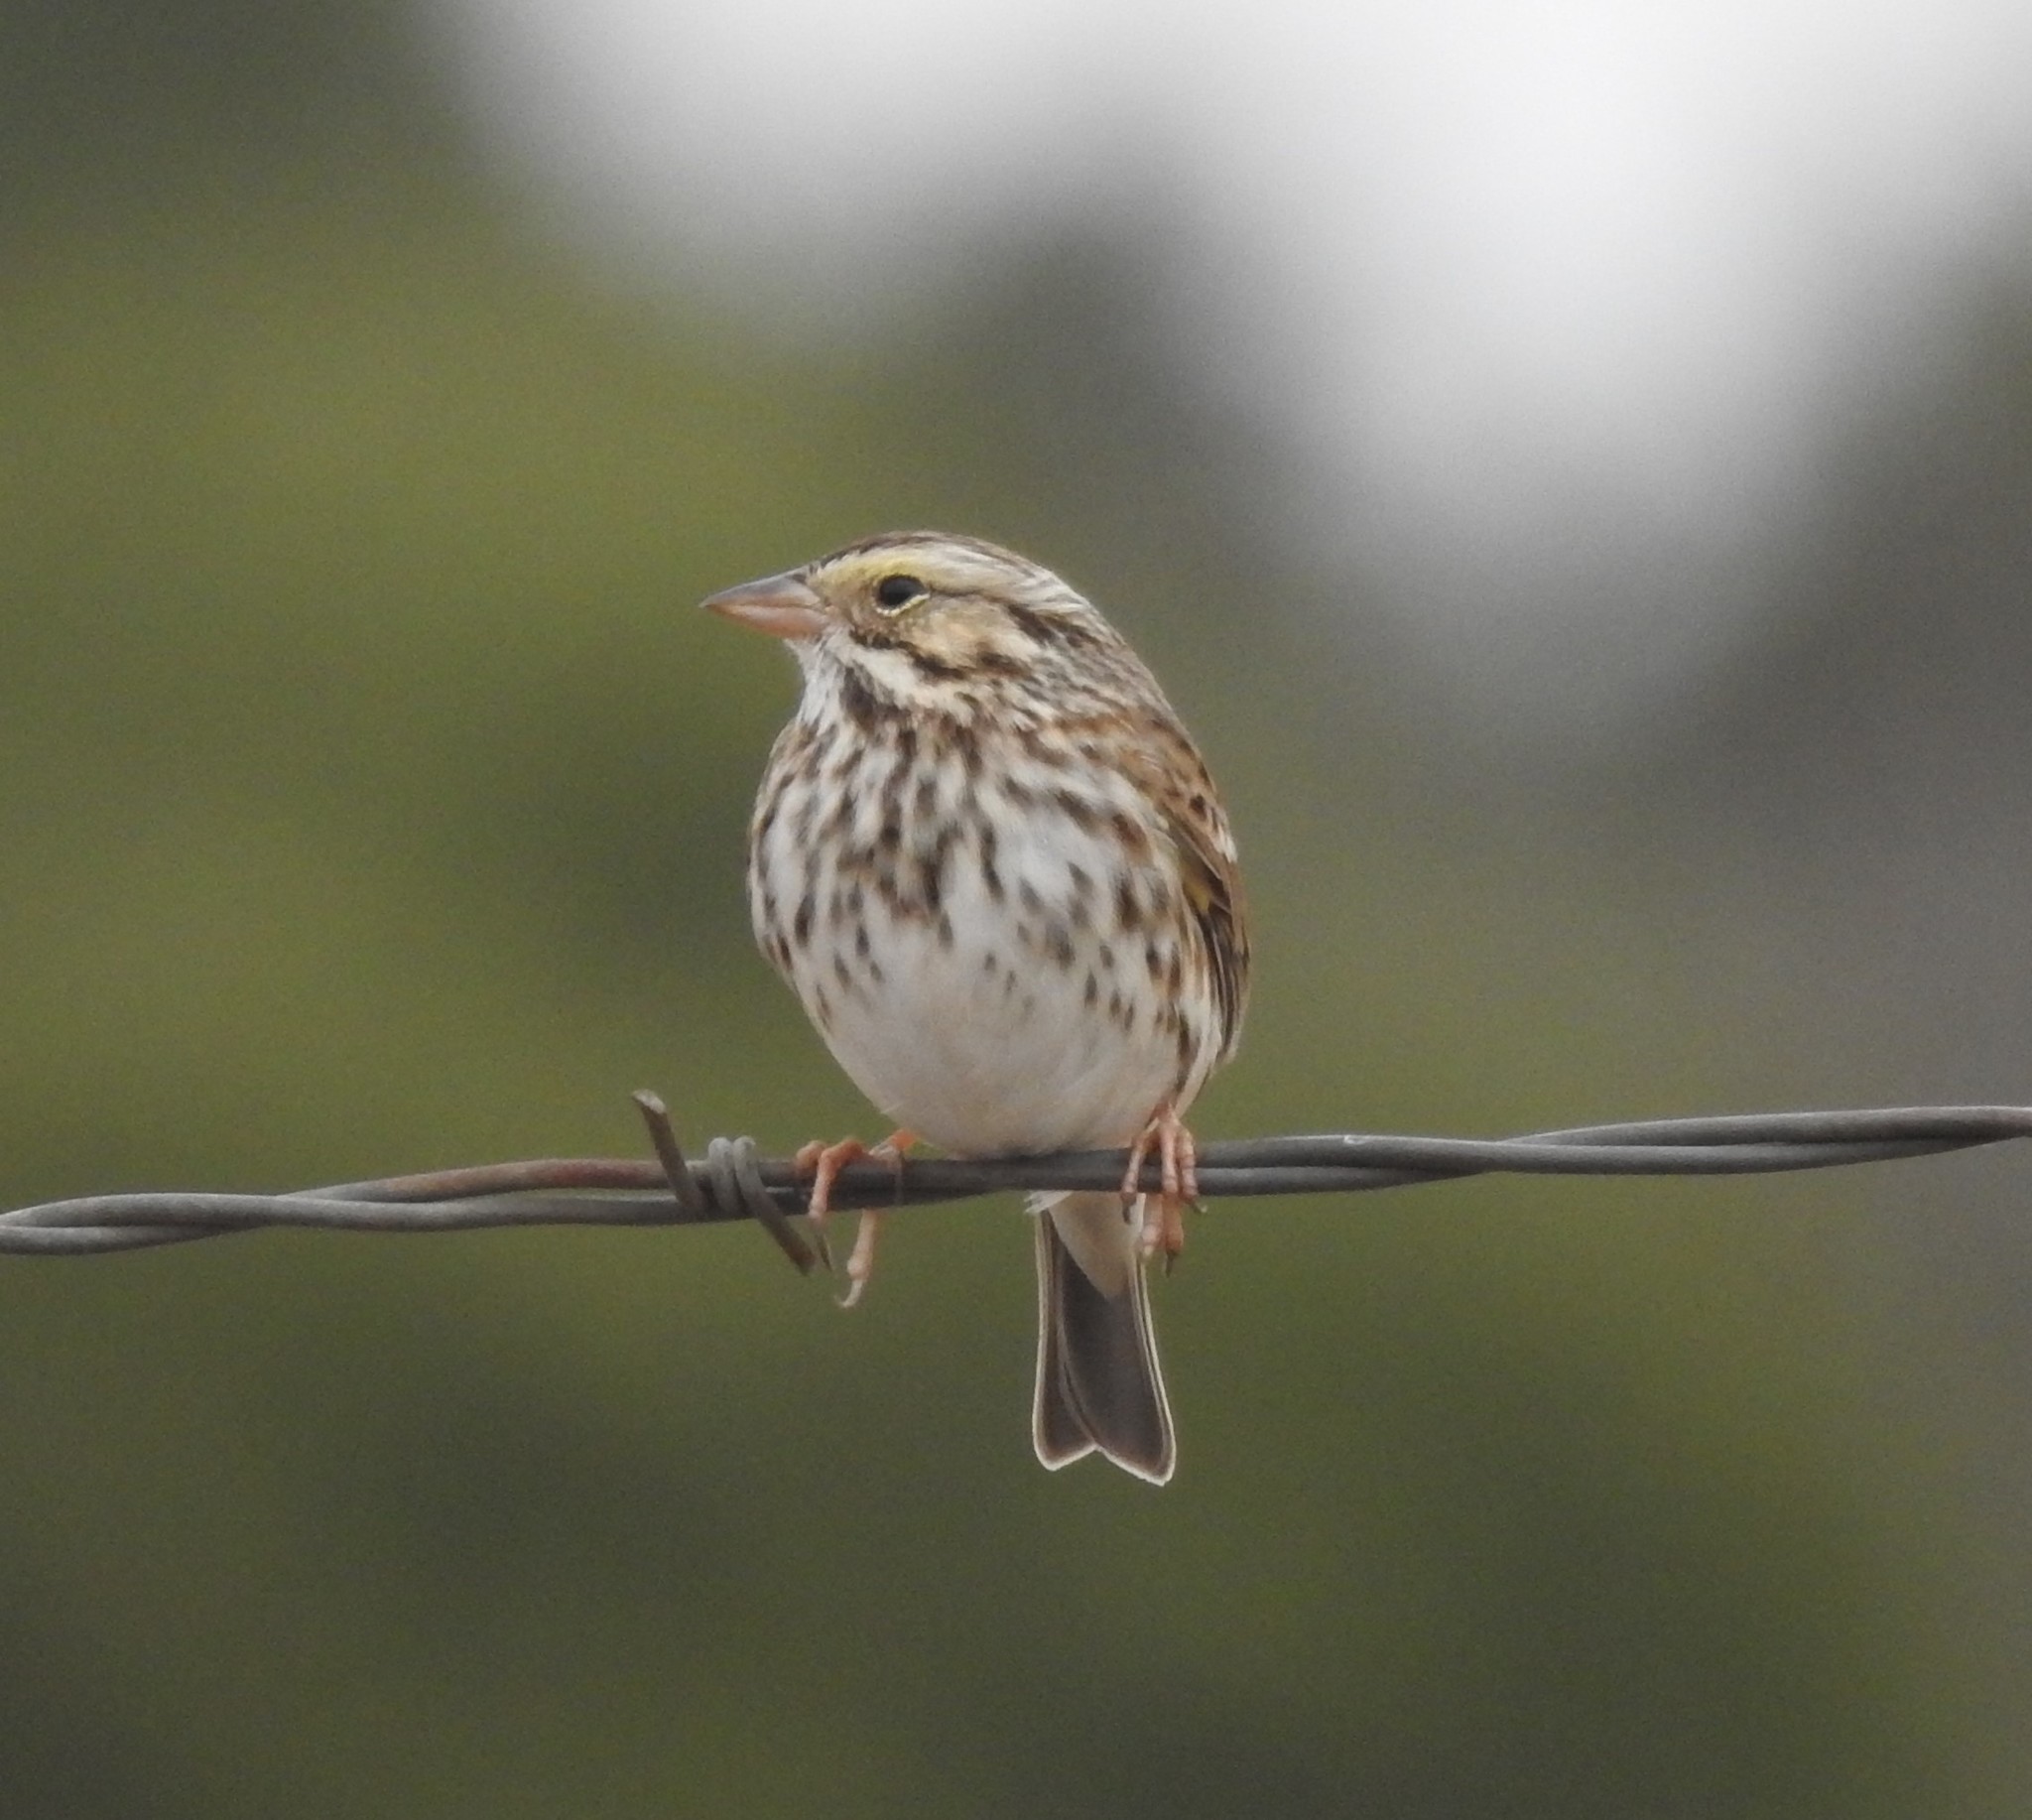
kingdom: Animalia
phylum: Chordata
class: Aves
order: Passeriformes
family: Passerellidae
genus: Passerculus
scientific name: Passerculus sandwichensis
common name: Savannah sparrow
